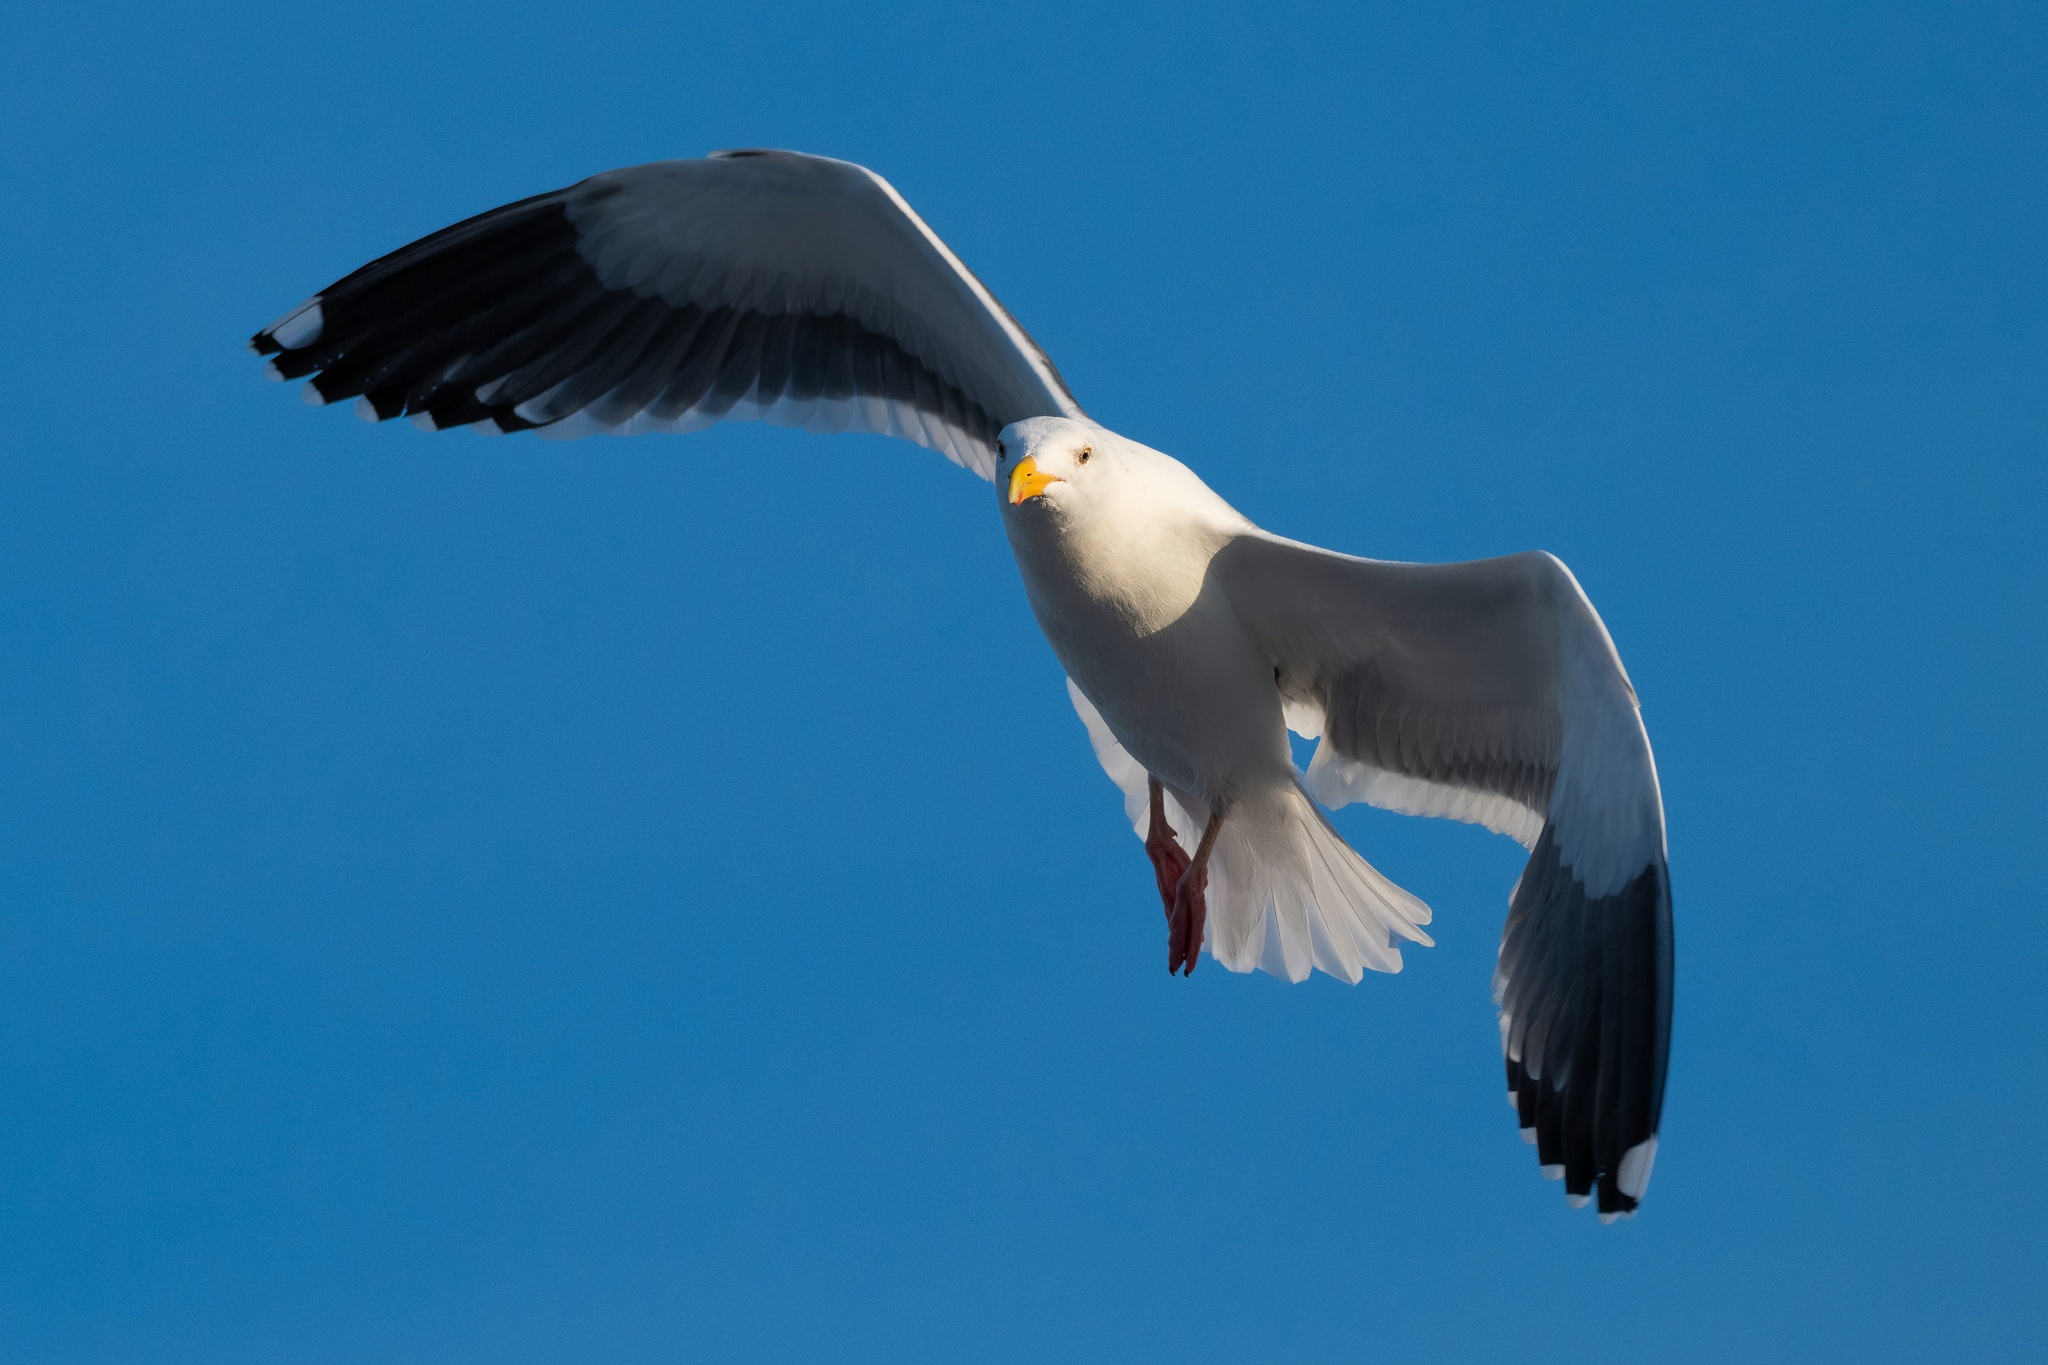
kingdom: Animalia
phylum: Chordata
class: Aves
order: Charadriiformes
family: Laridae
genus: Larus
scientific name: Larus occidentalis
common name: Western gull
